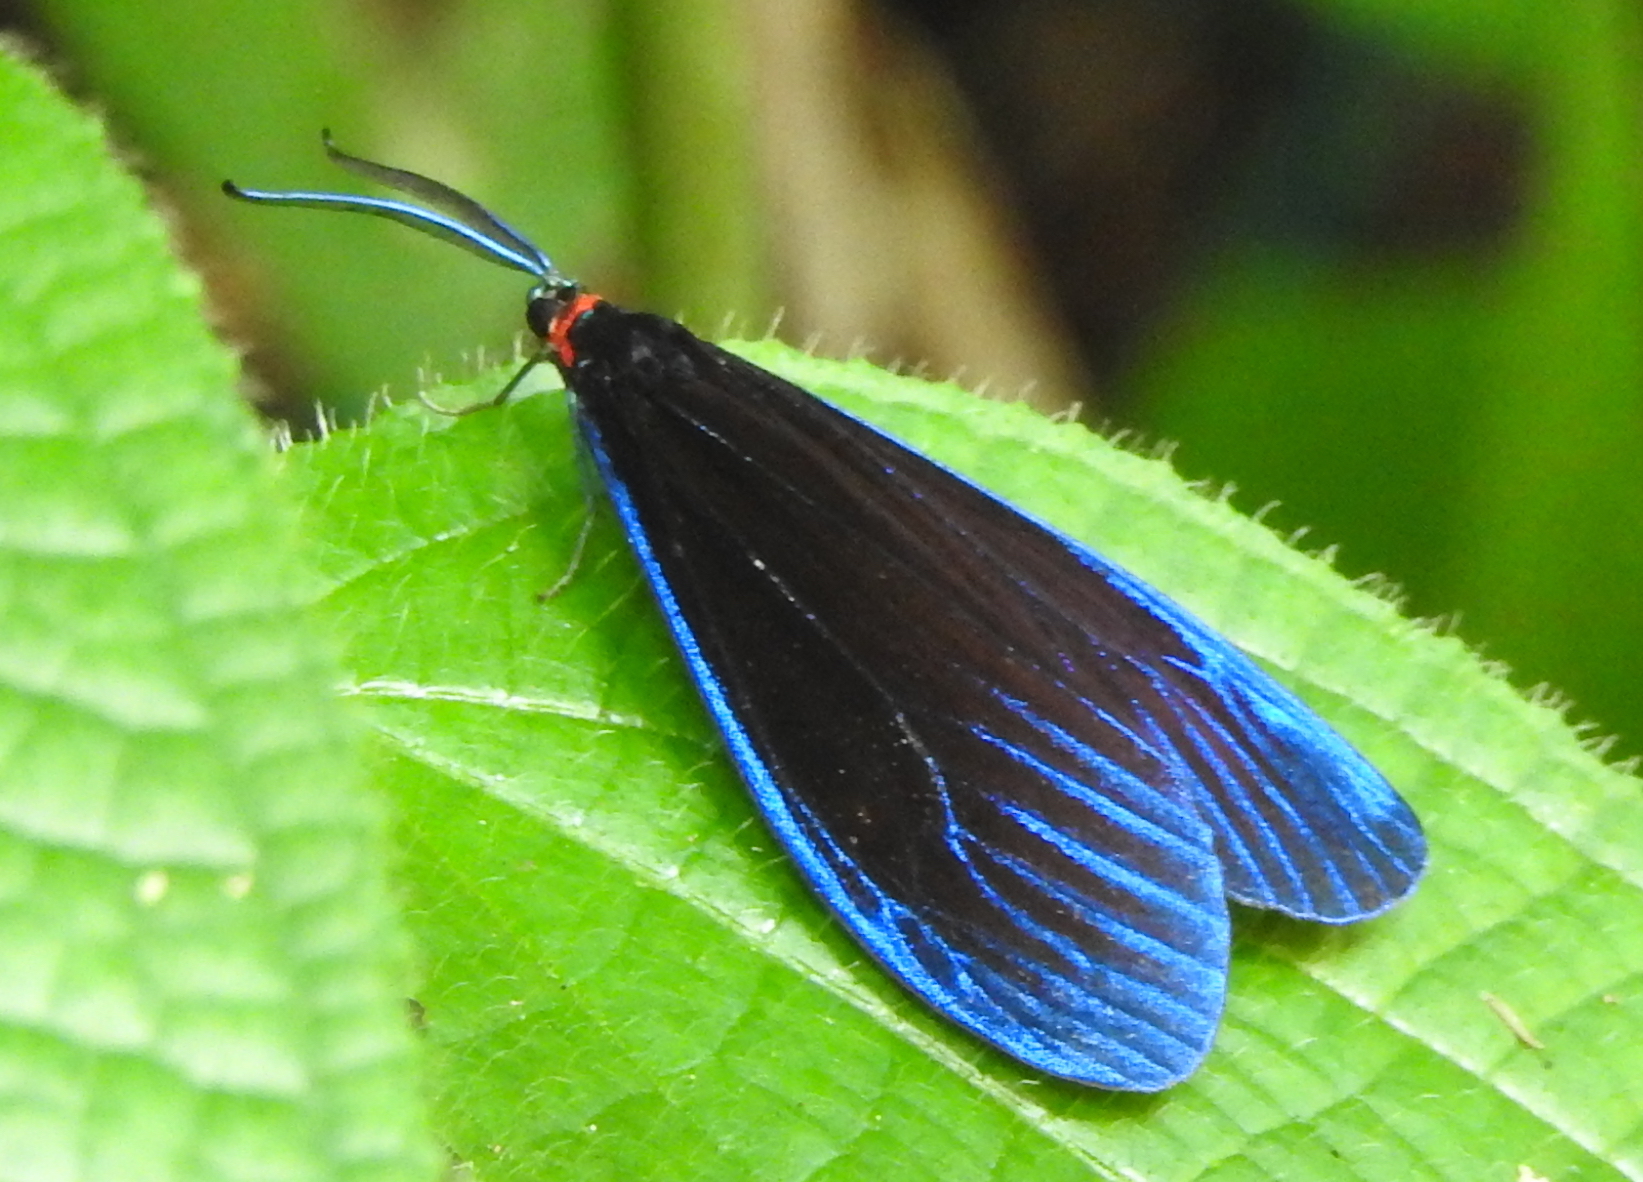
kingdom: Animalia
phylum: Arthropoda
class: Insecta
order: Lepidoptera
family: Zygaenidae
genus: Pompelon
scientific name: Pompelon marginata
